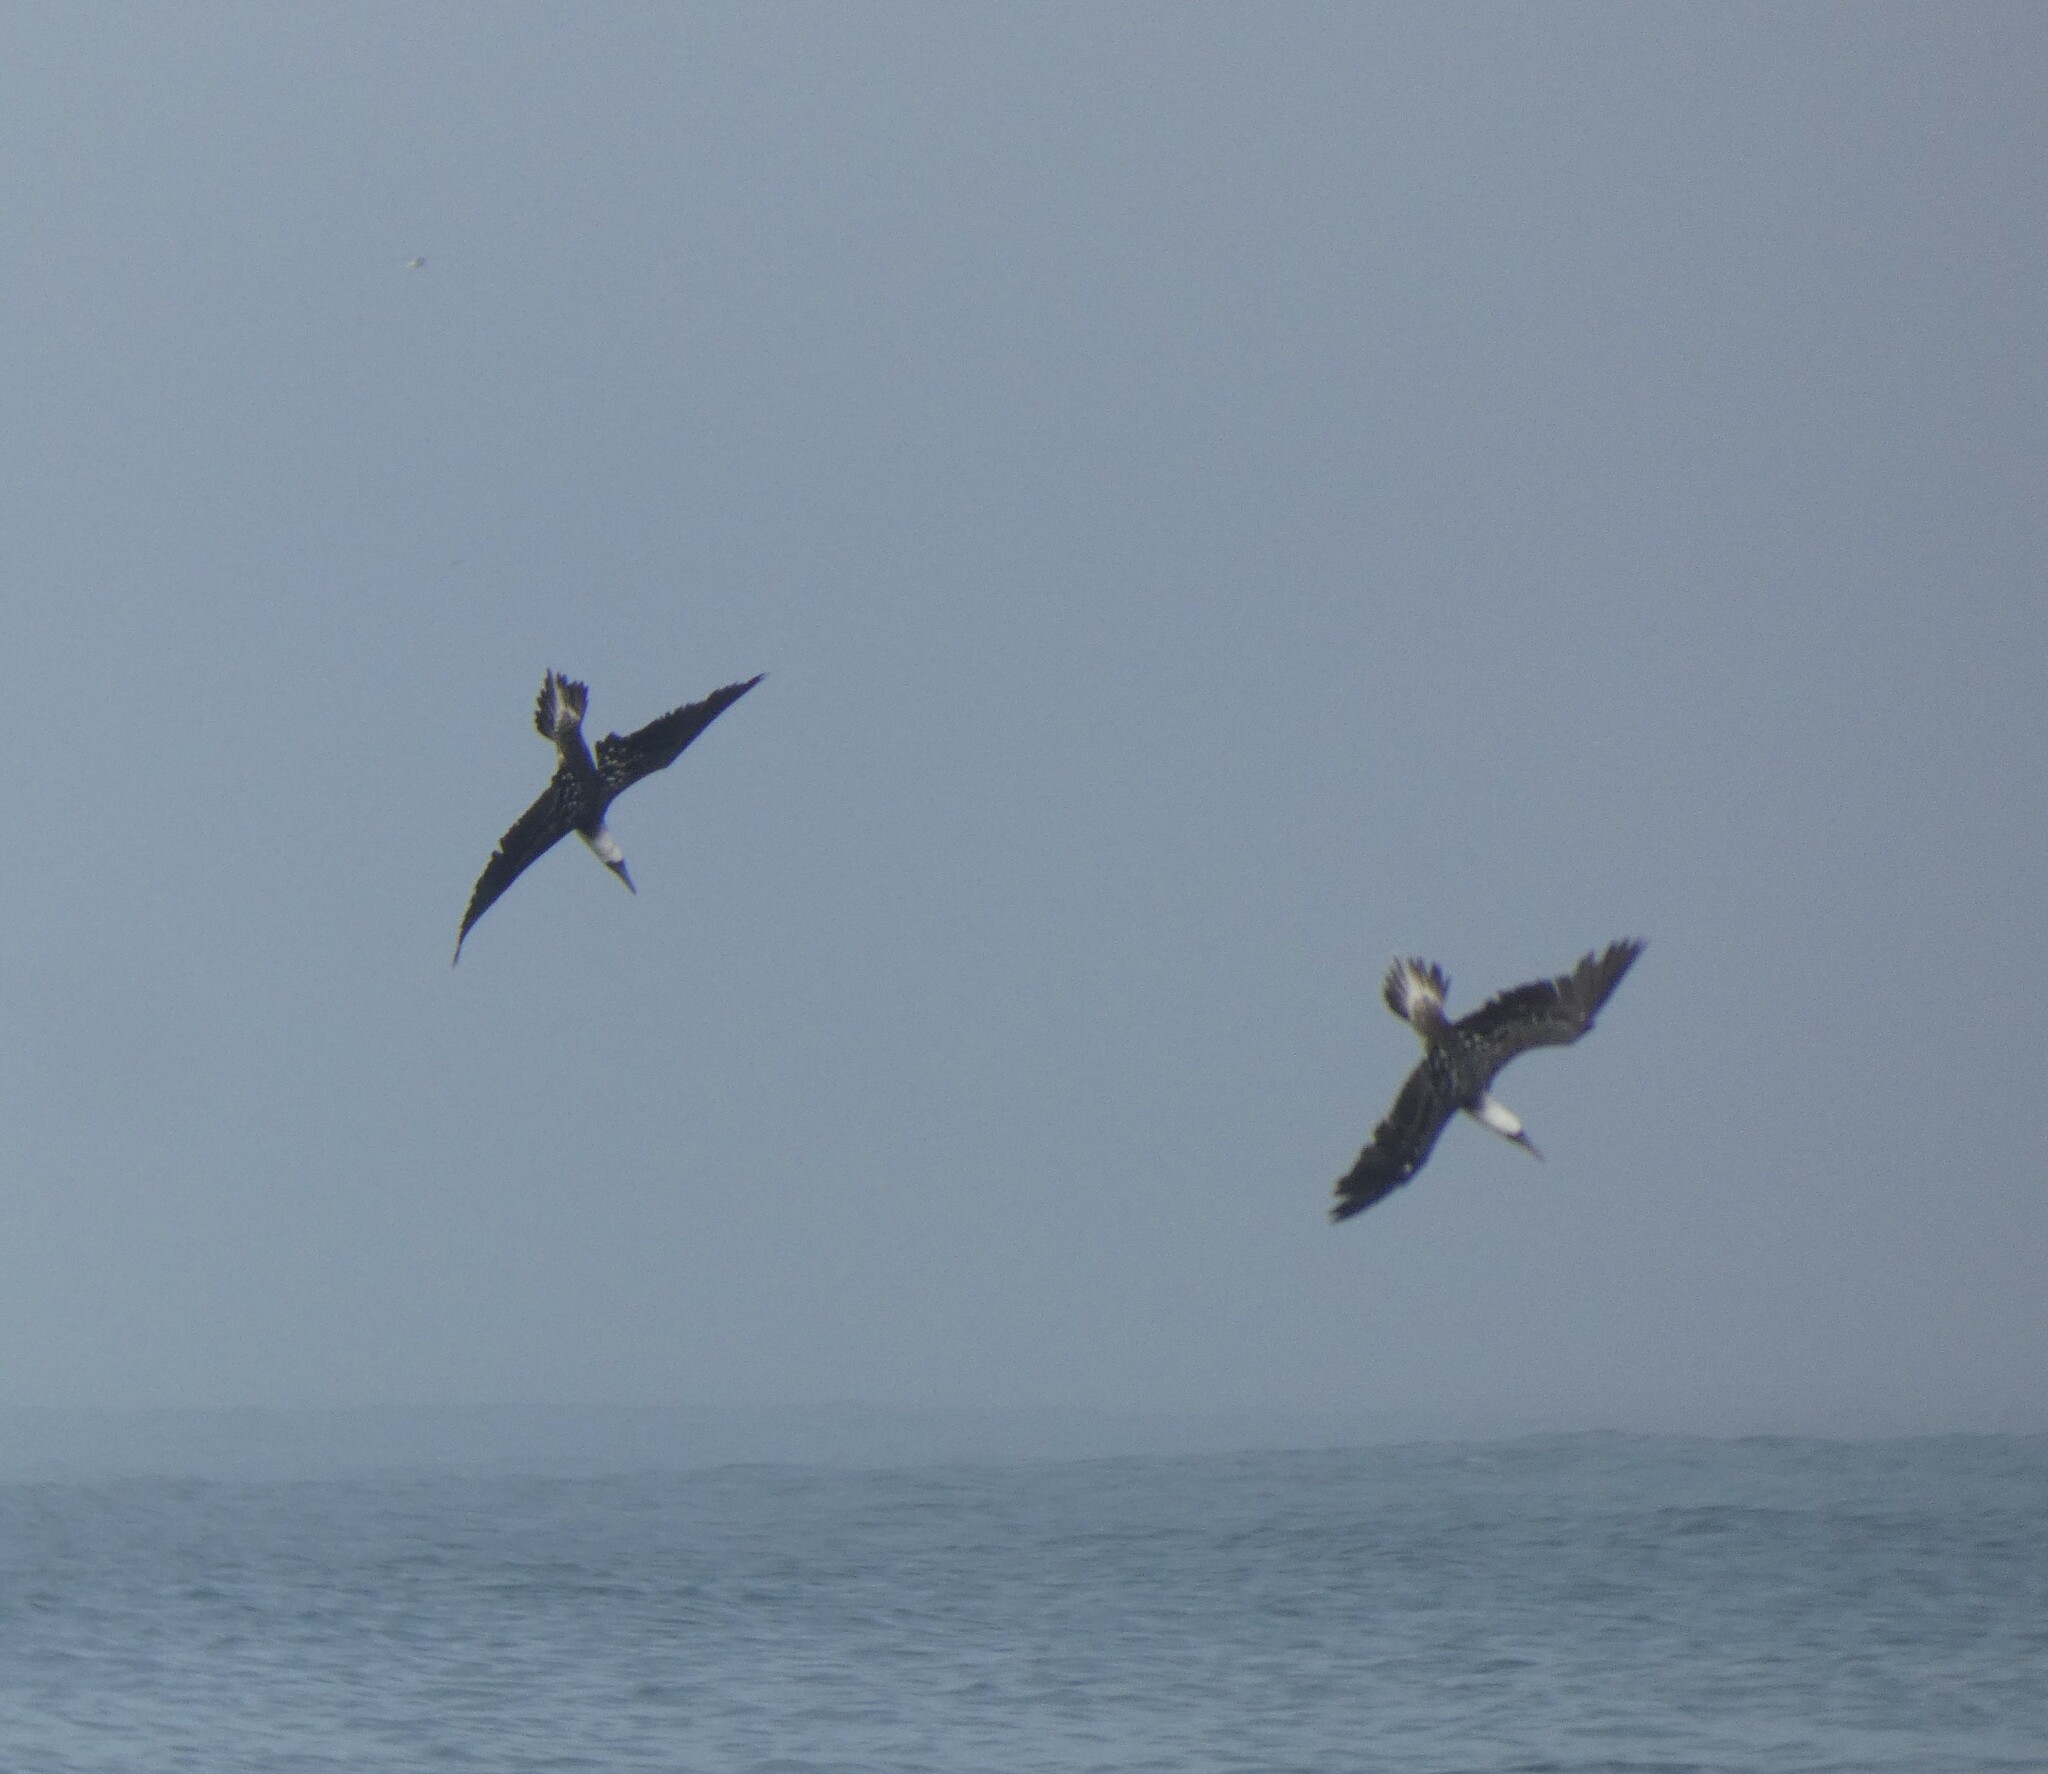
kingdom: Animalia
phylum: Chordata
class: Aves
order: Suliformes
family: Sulidae
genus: Sula
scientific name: Sula variegata
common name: Peruvian booby
